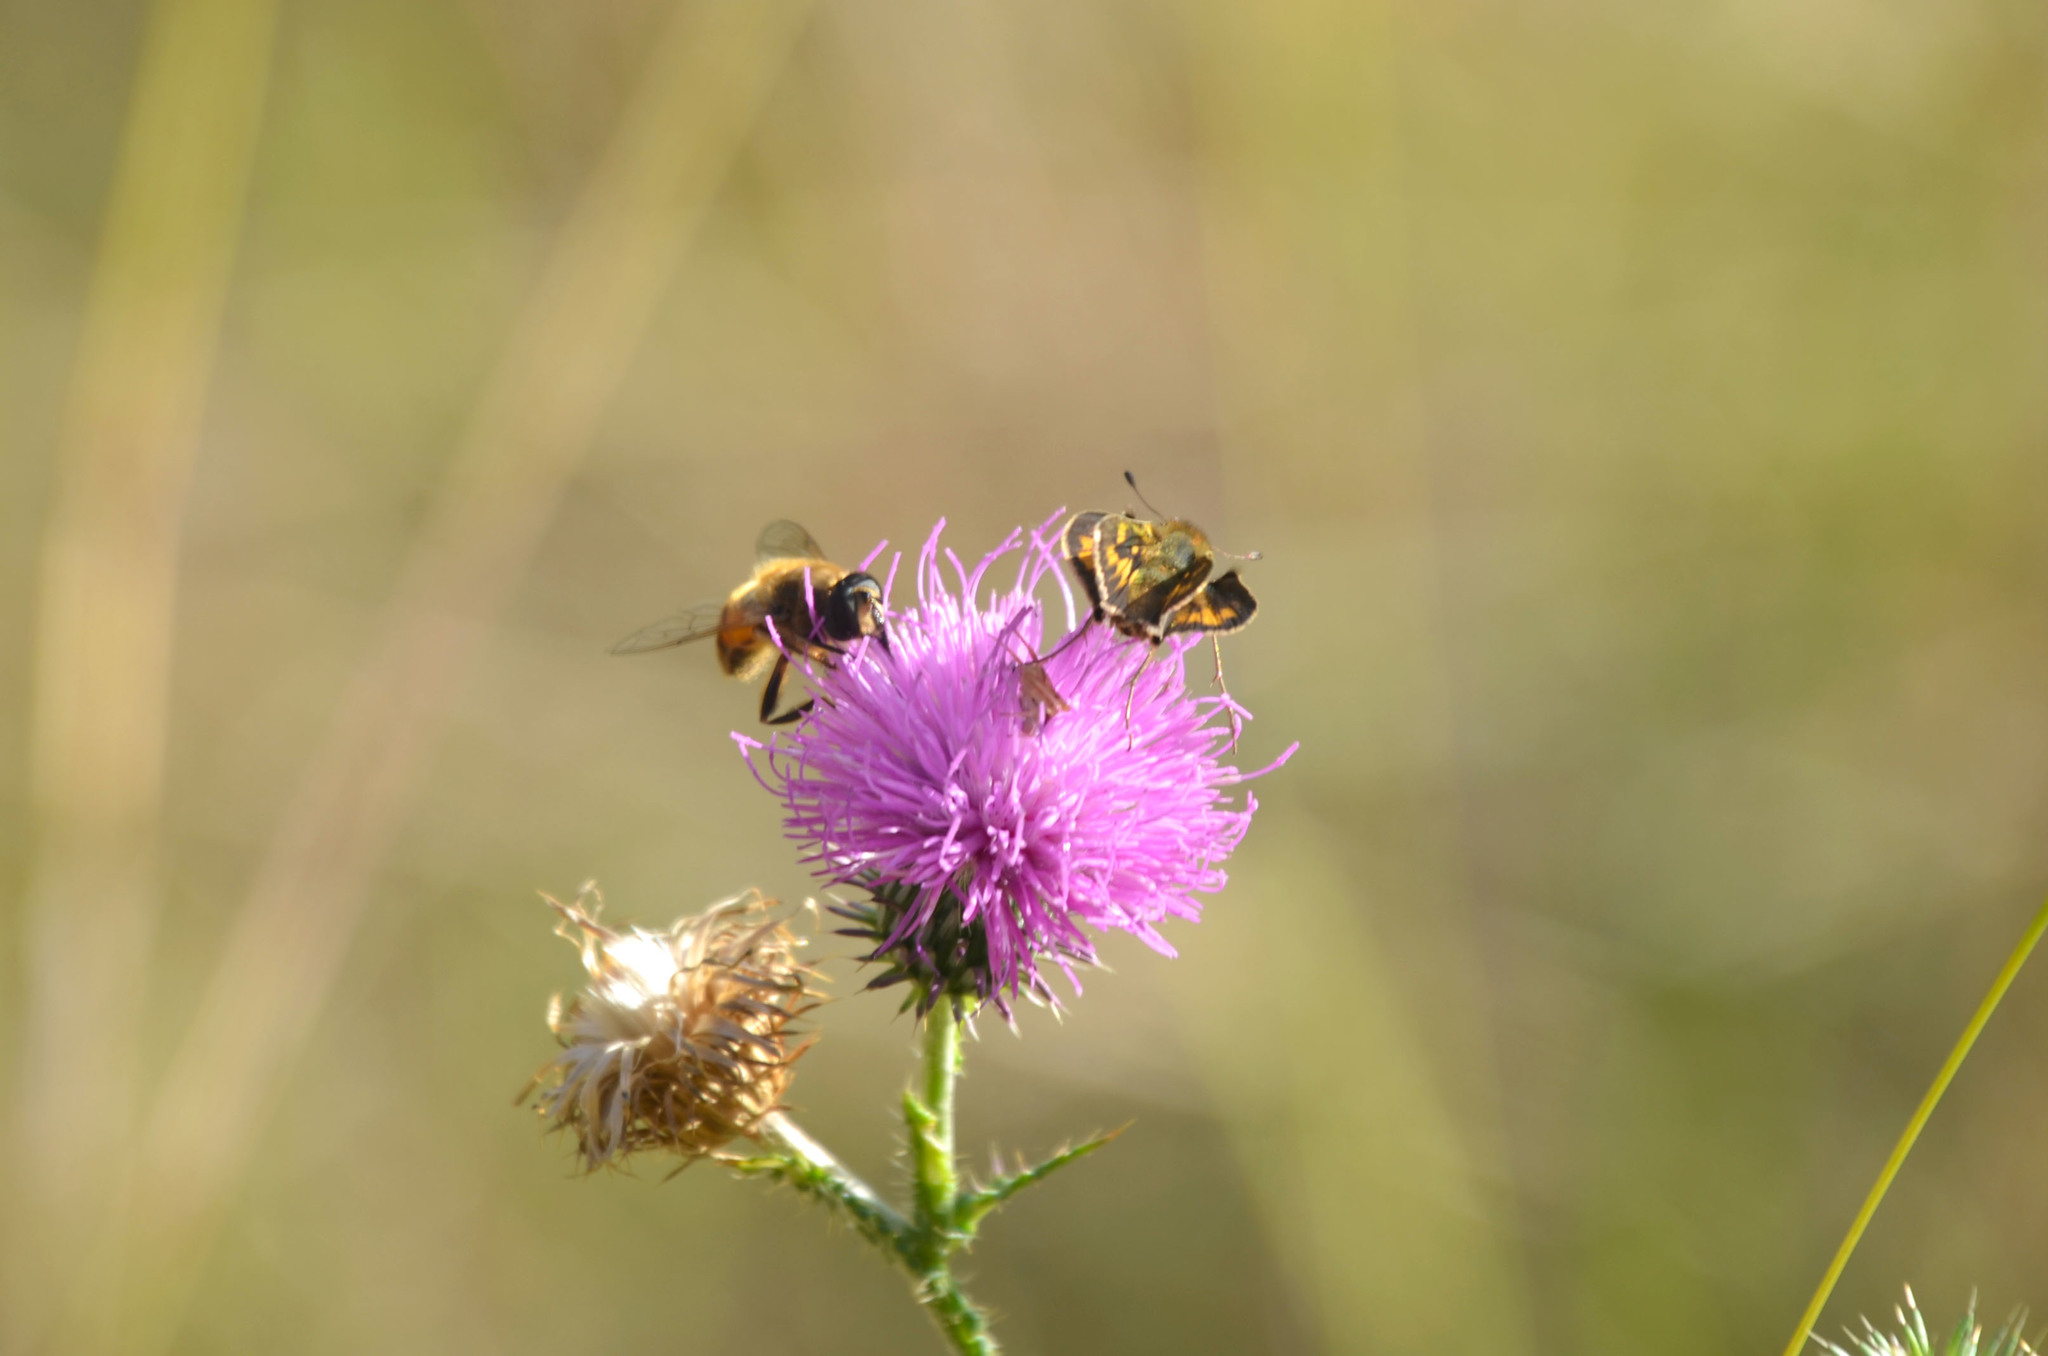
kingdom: Animalia
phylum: Arthropoda
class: Insecta
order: Diptera
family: Syrphidae
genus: Eristalis
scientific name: Eristalis tenax
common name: Drone fly
